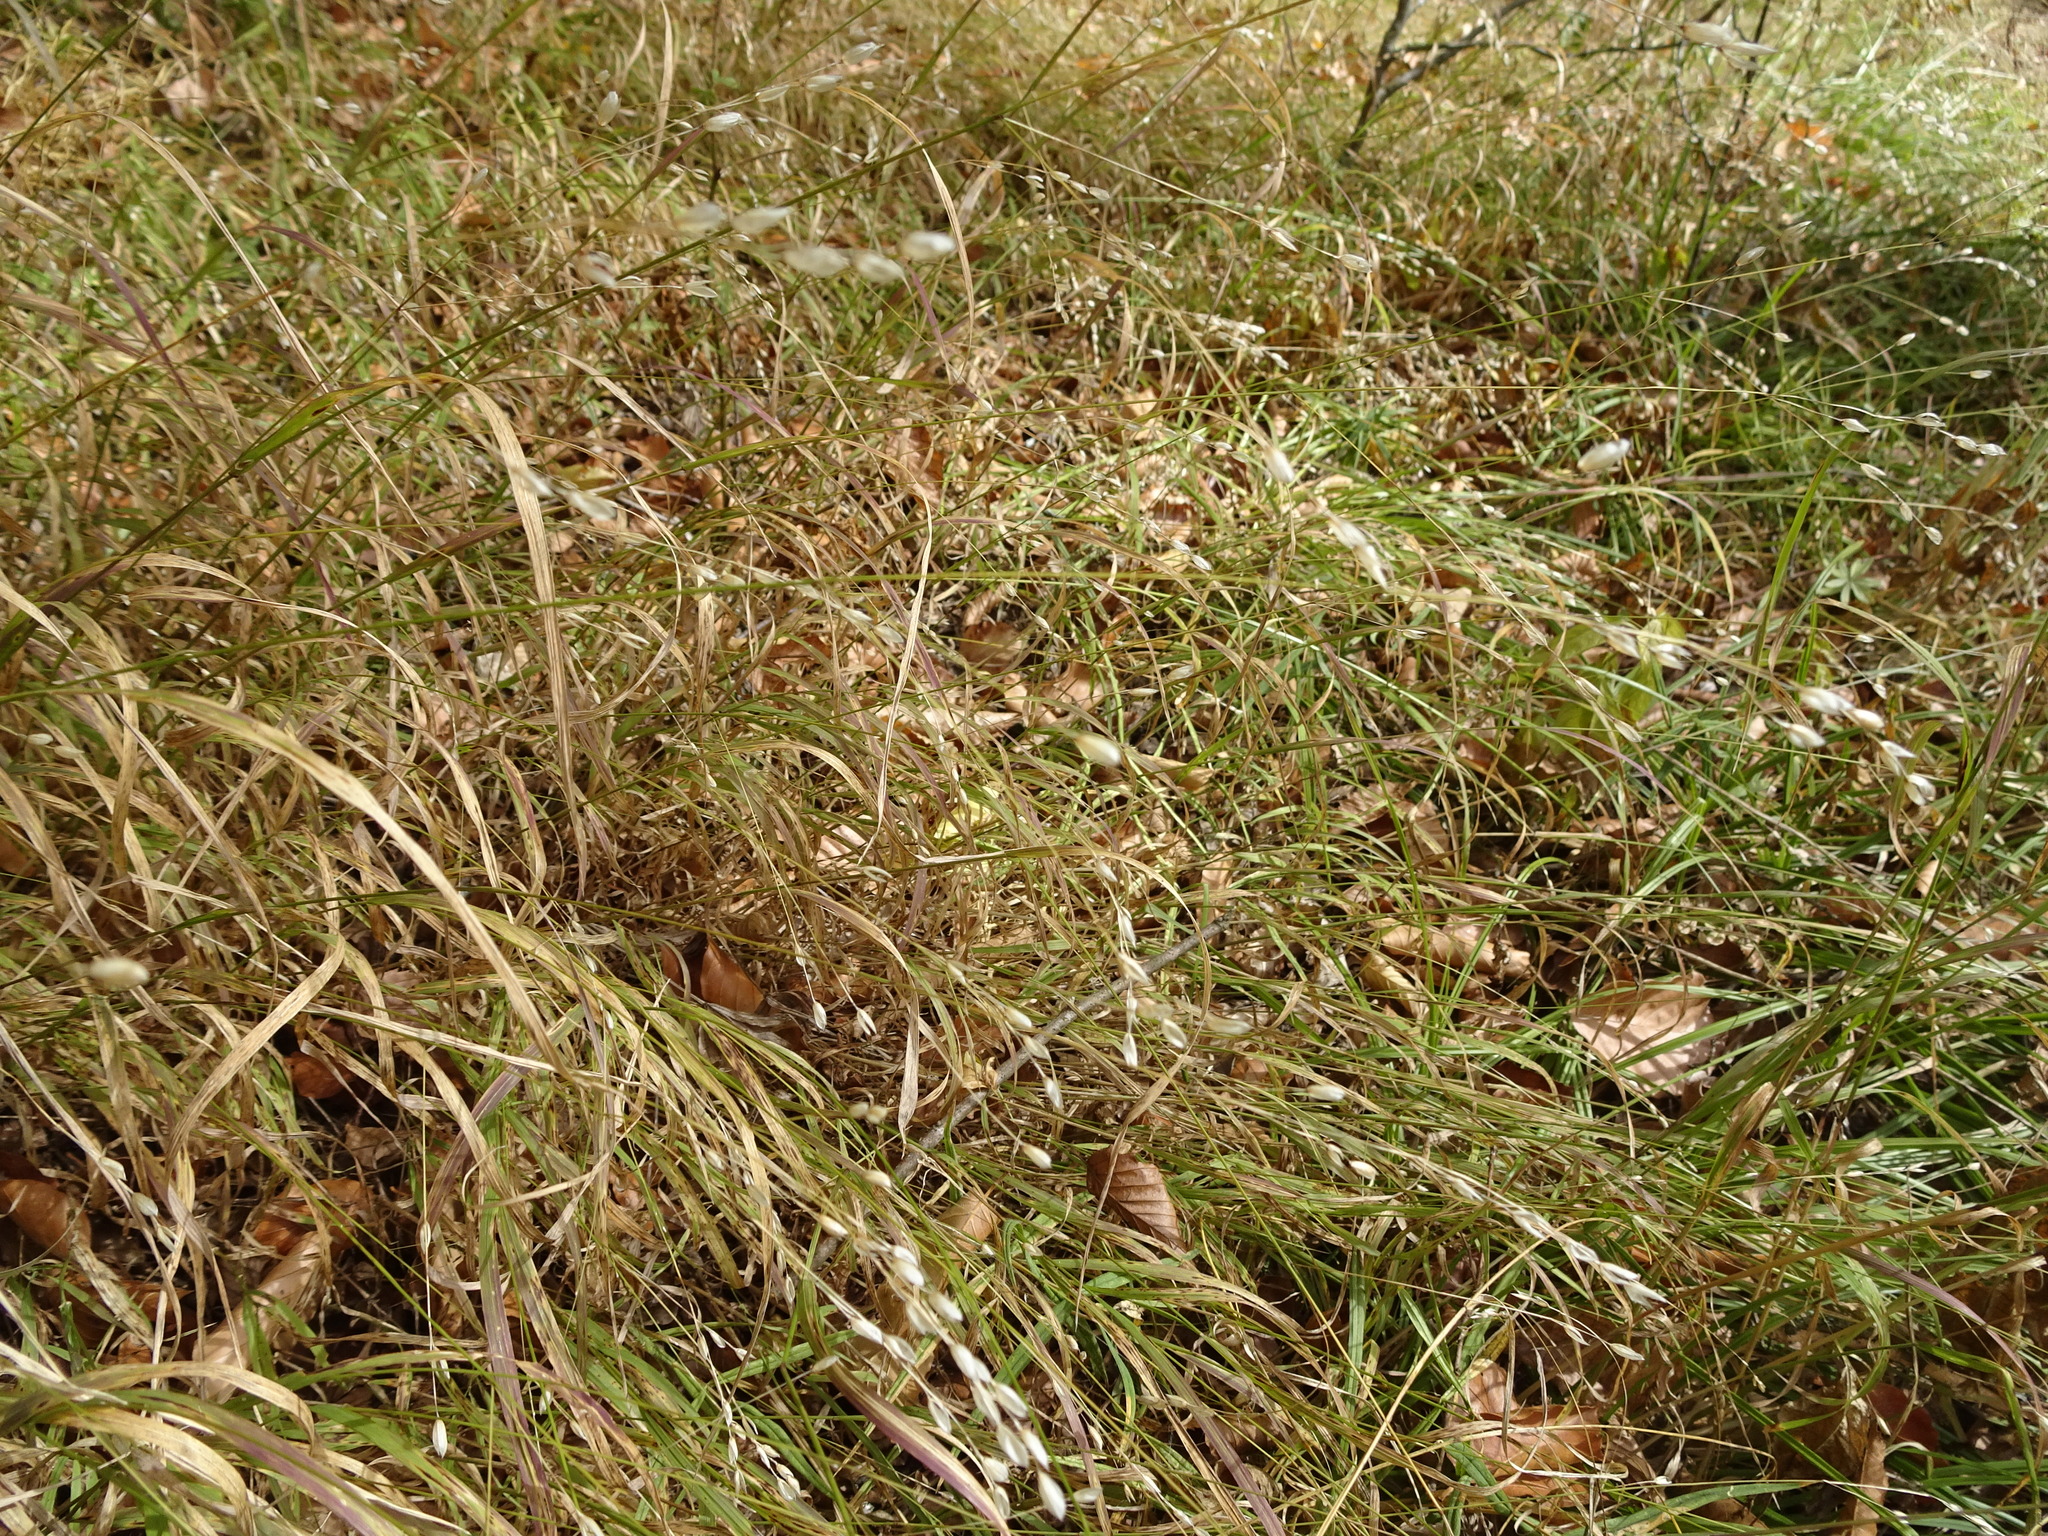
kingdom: Plantae
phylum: Tracheophyta
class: Liliopsida
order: Poales
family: Poaceae
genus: Melica
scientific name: Melica uniflora
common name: Wood melick
